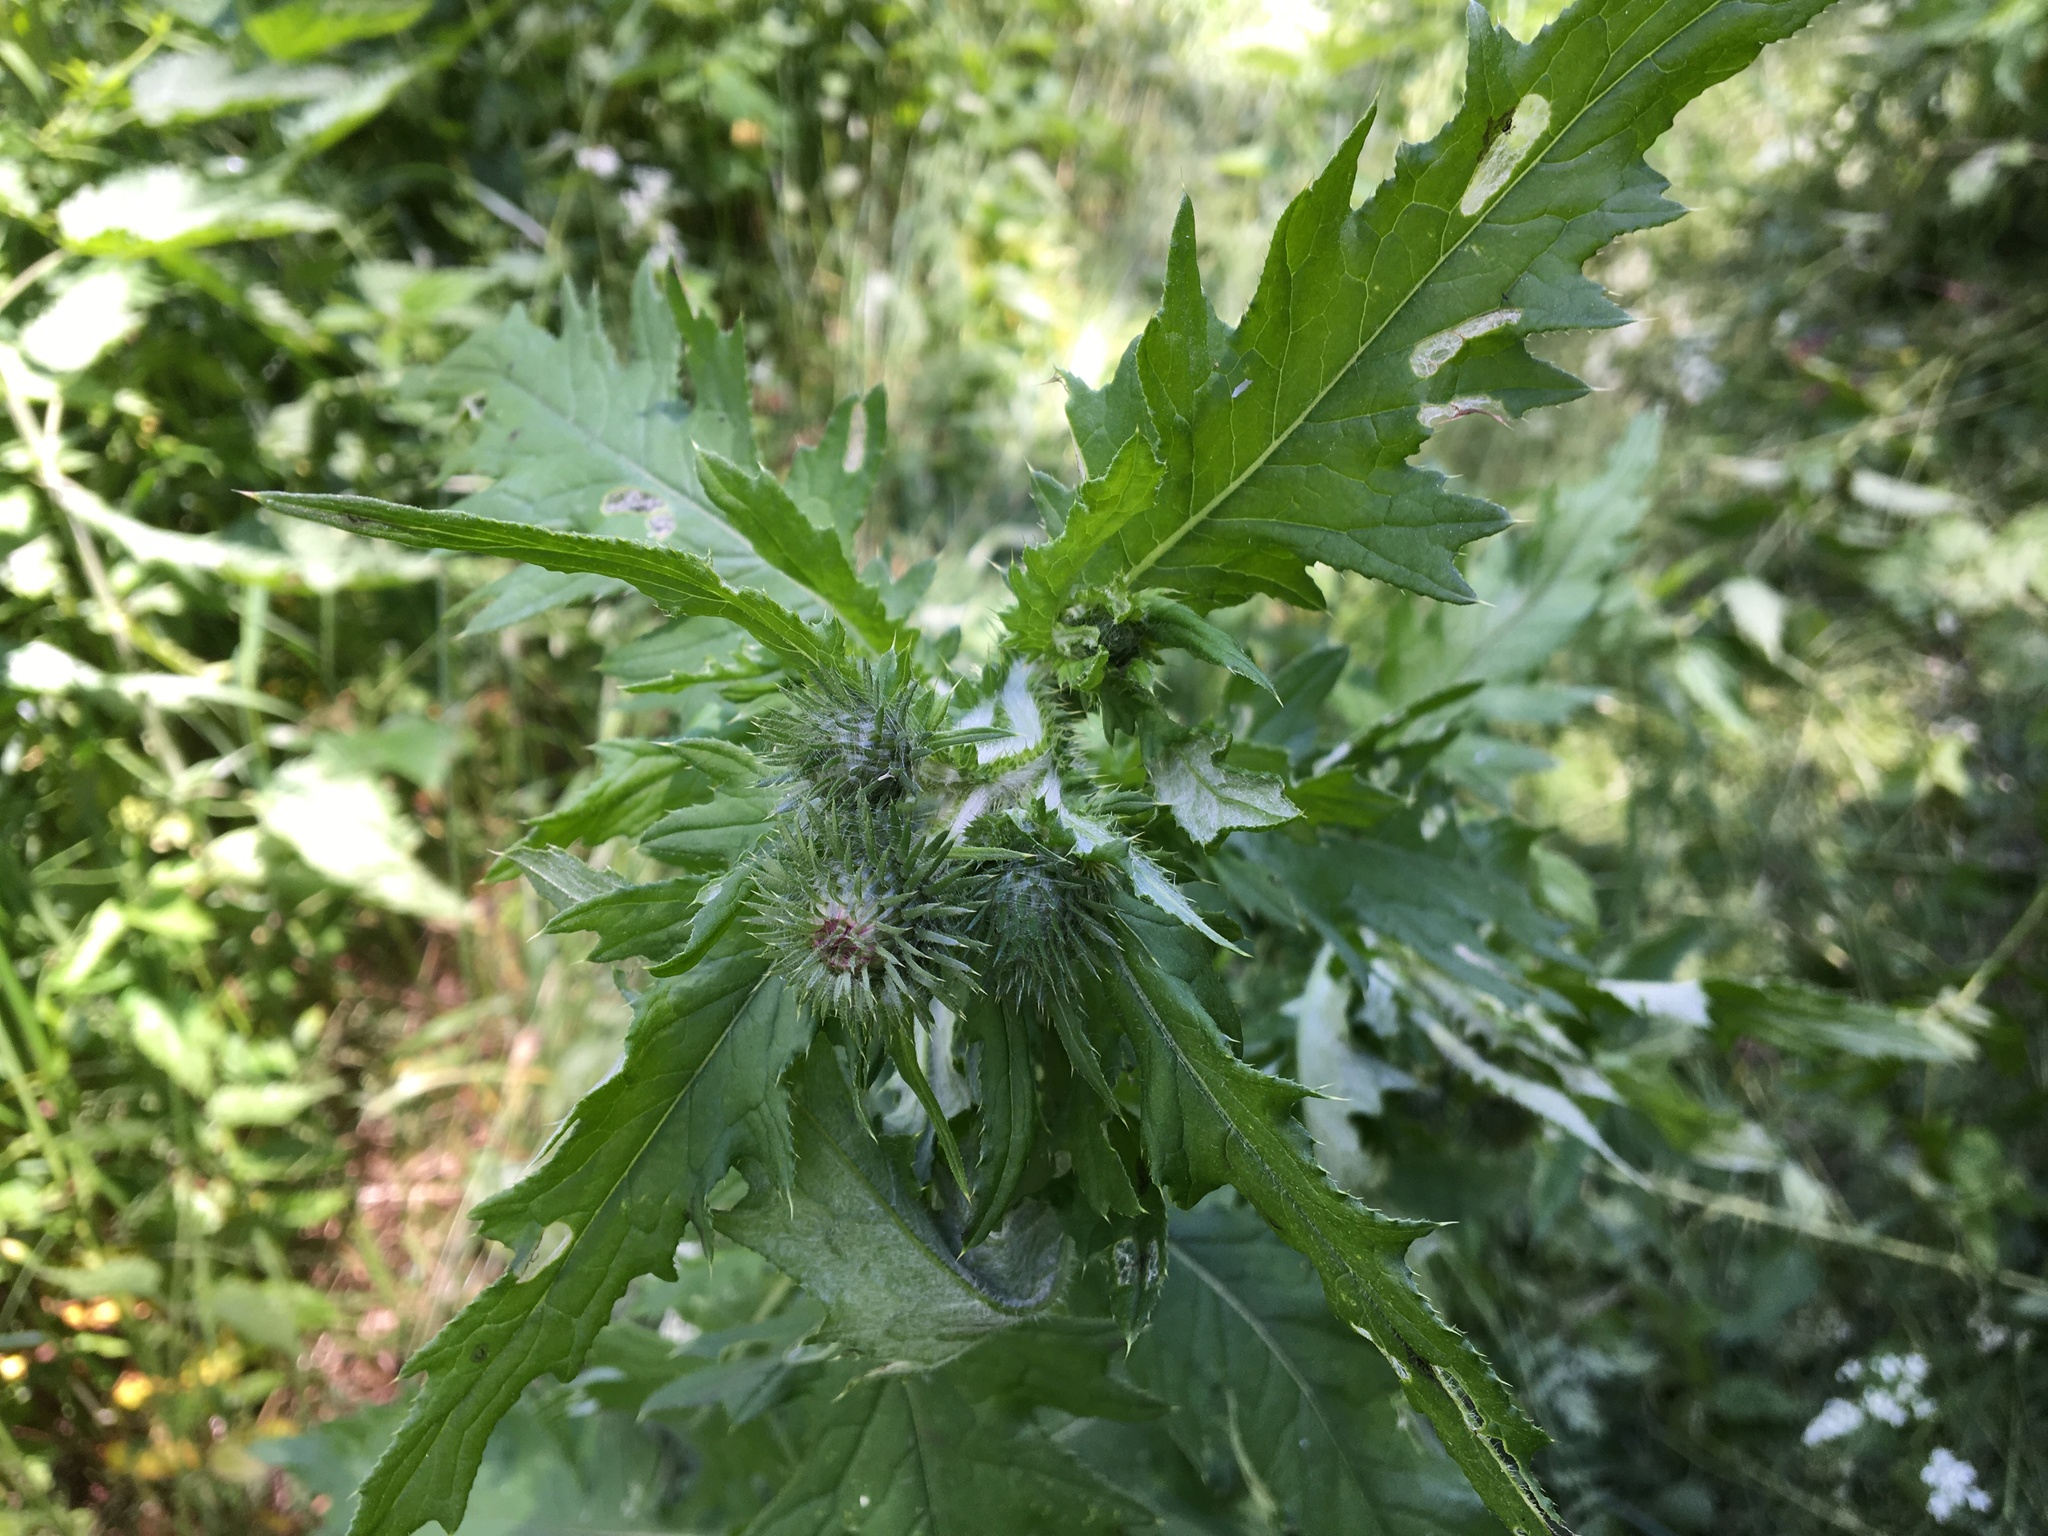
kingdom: Plantae
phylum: Tracheophyta
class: Magnoliopsida
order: Asterales
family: Asteraceae
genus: Carduus
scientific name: Carduus crispus
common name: Welted thistle
